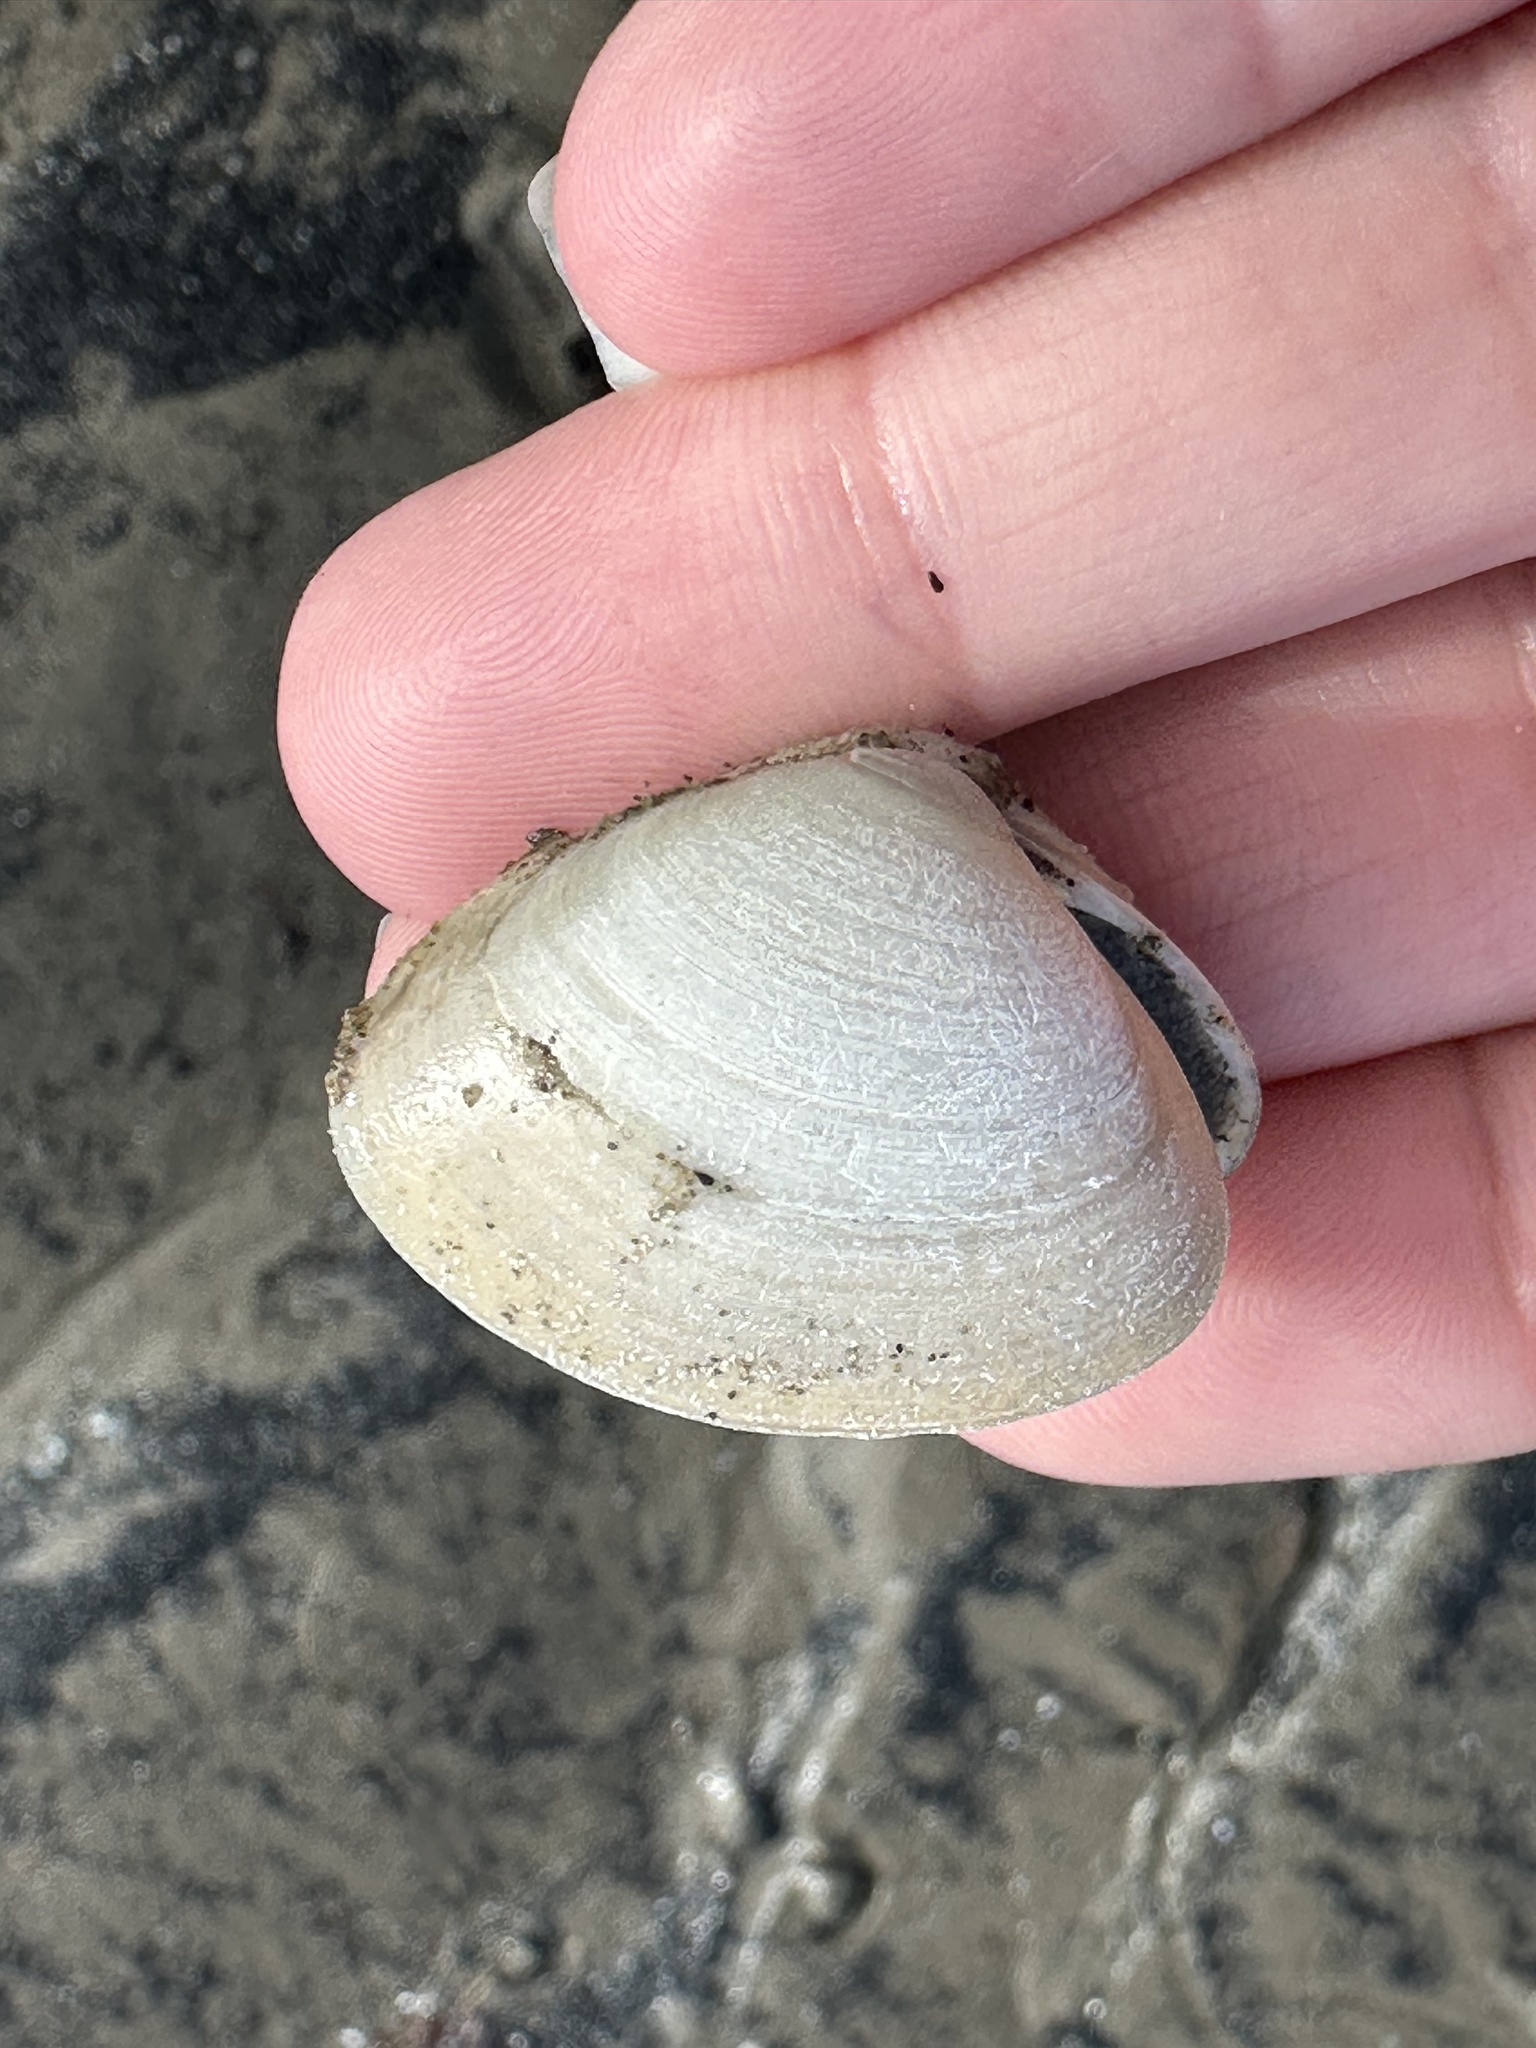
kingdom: Animalia
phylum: Mollusca
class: Bivalvia
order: Venerida
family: Mactridae
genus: Spisula
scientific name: Spisula solidissima
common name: Atlantic surf clam
